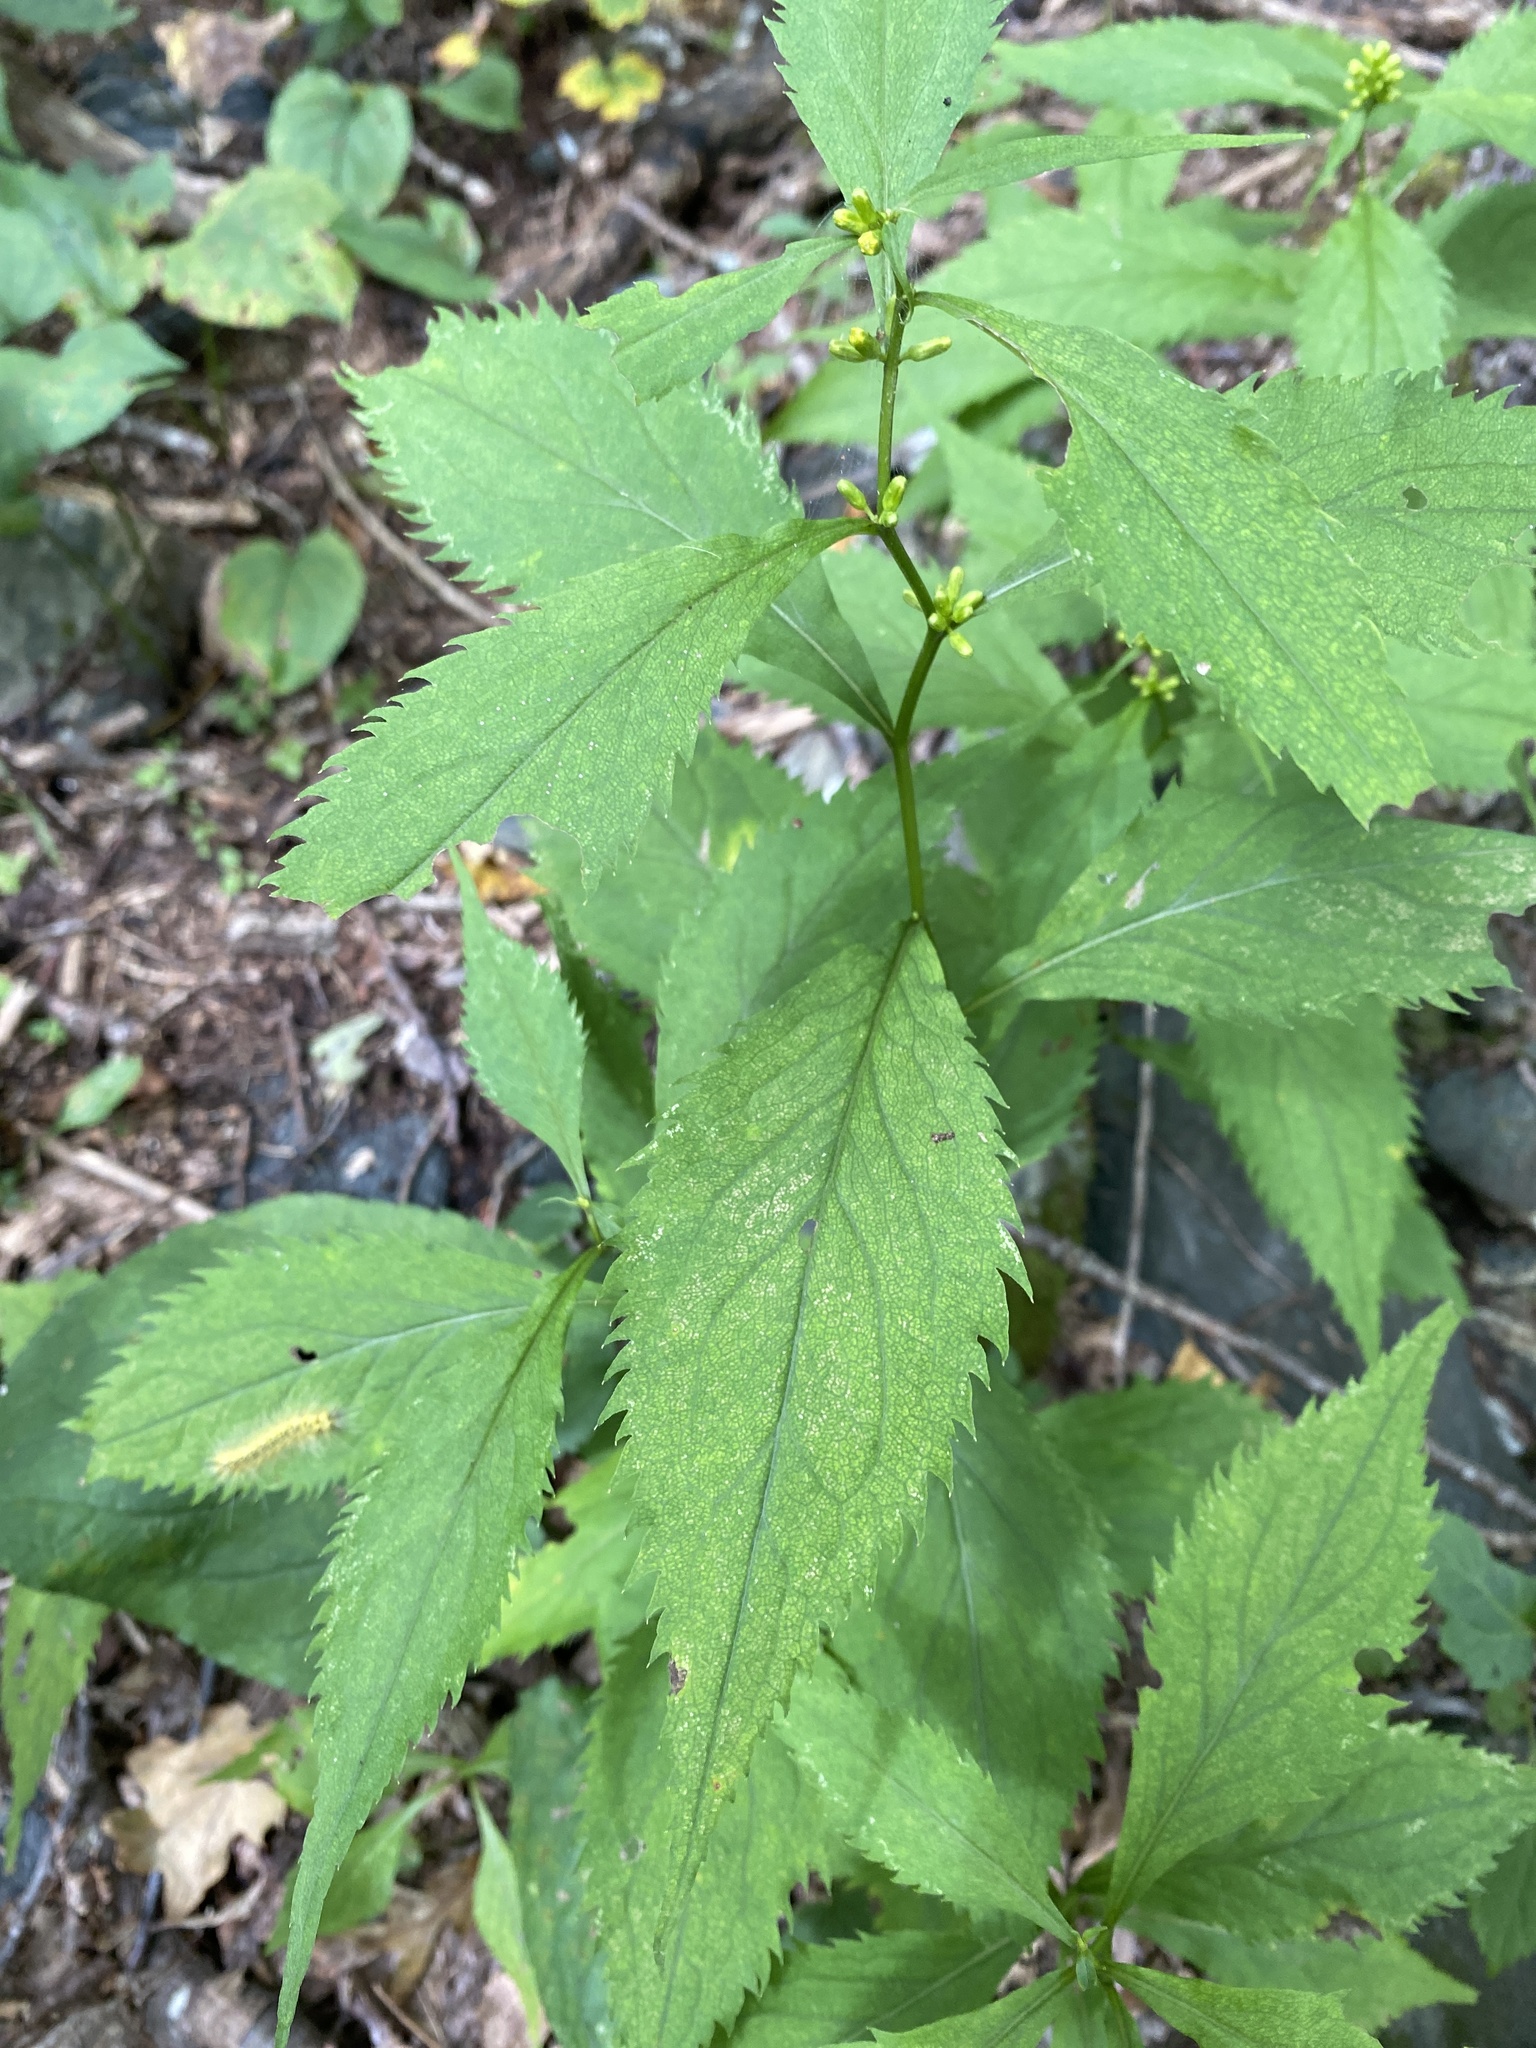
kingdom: Plantae
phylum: Tracheophyta
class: Magnoliopsida
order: Asterales
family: Asteraceae
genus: Solidago
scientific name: Solidago flexicaulis
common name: Zig-zag goldenrod
